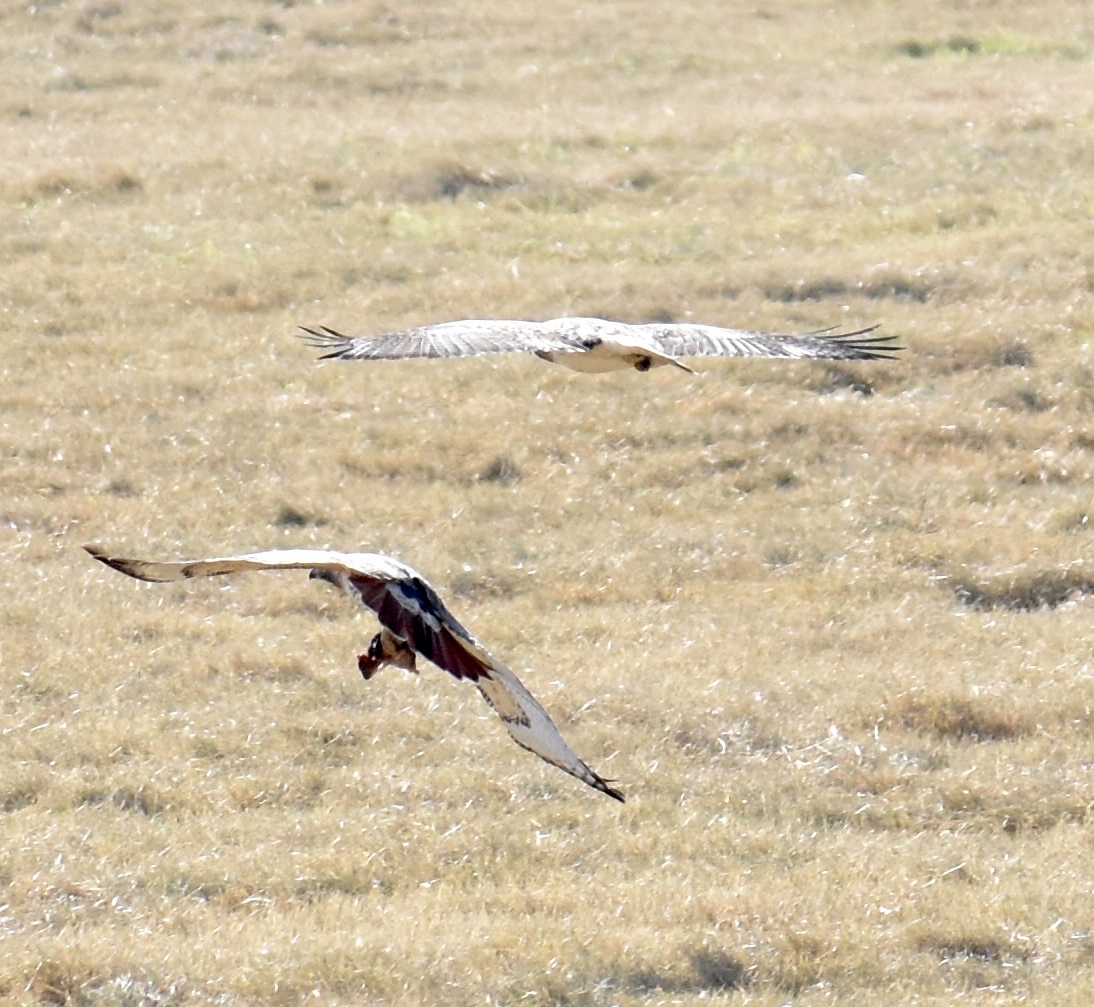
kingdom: Animalia
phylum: Chordata
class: Aves
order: Accipitriformes
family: Accipitridae
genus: Buteo
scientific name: Buteo jamaicensis
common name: Red-tailed hawk
